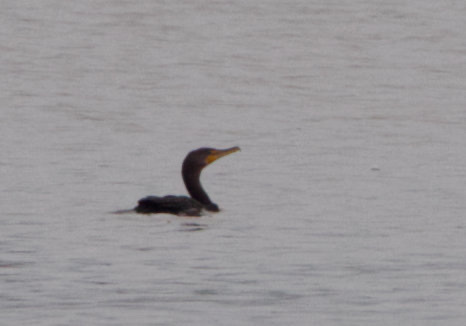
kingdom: Animalia
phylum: Chordata
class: Aves
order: Suliformes
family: Phalacrocoracidae
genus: Phalacrocorax
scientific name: Phalacrocorax auritus
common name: Double-crested cormorant
